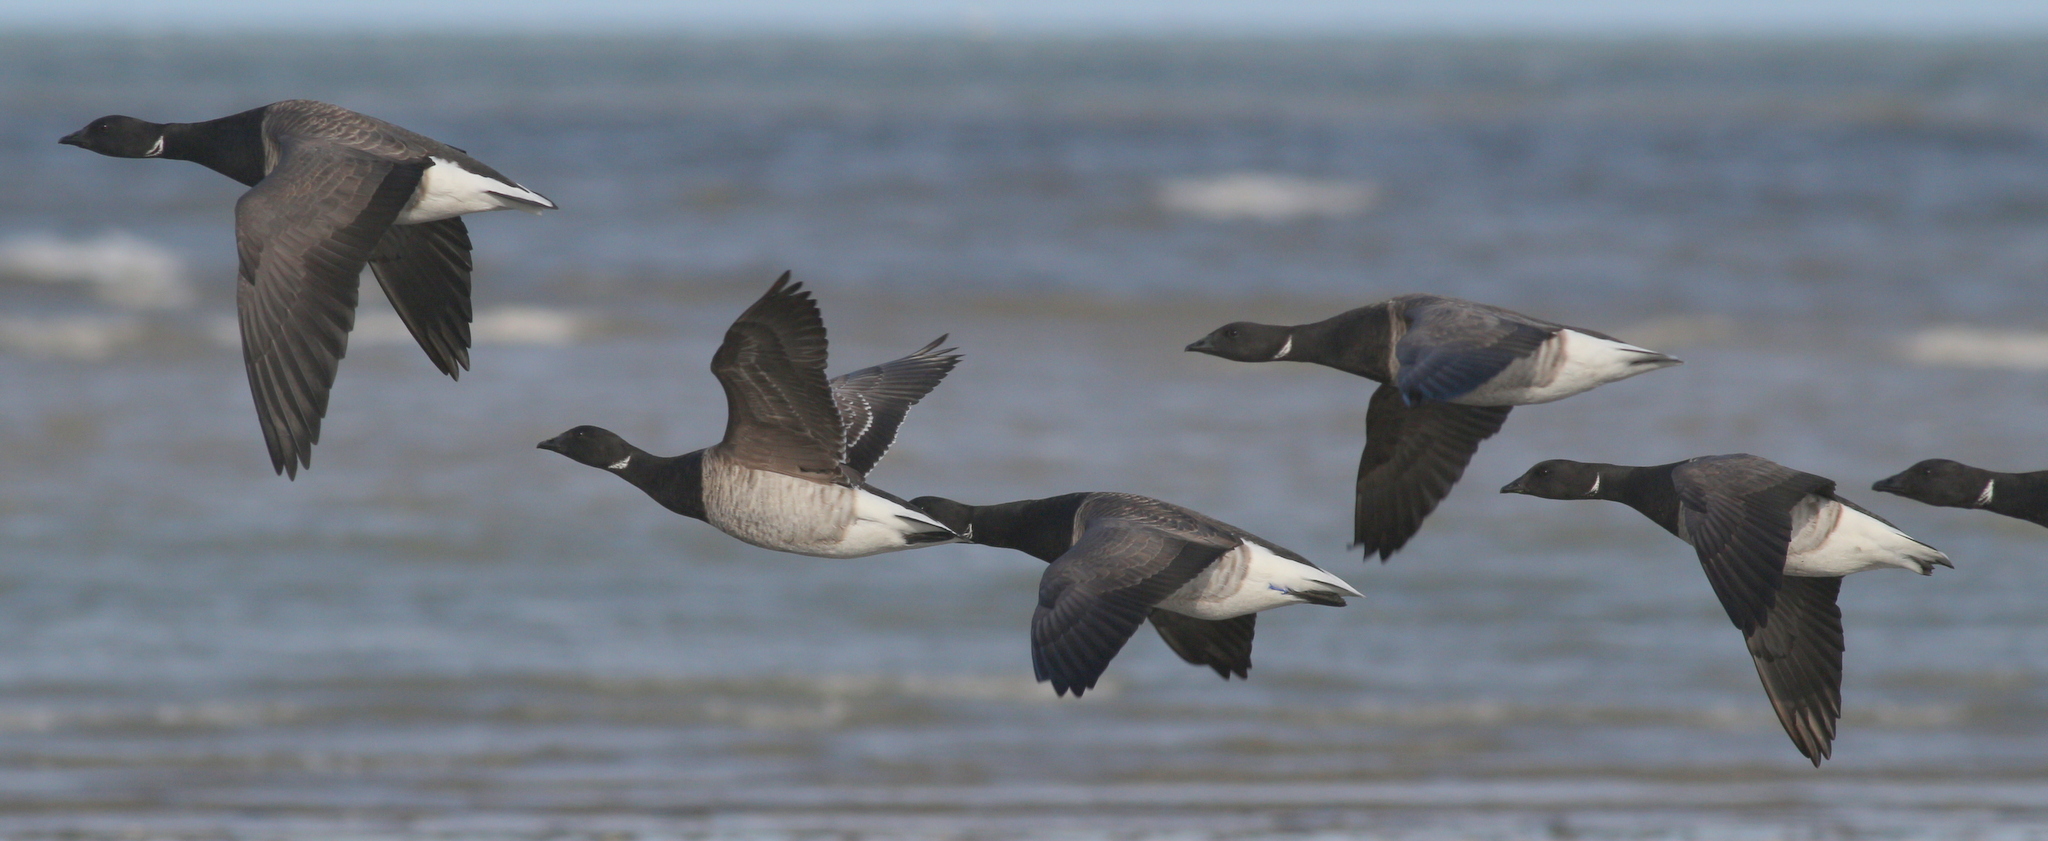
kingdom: Animalia
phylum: Chordata
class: Aves
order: Anseriformes
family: Anatidae
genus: Branta
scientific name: Branta bernicla
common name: Brant goose
